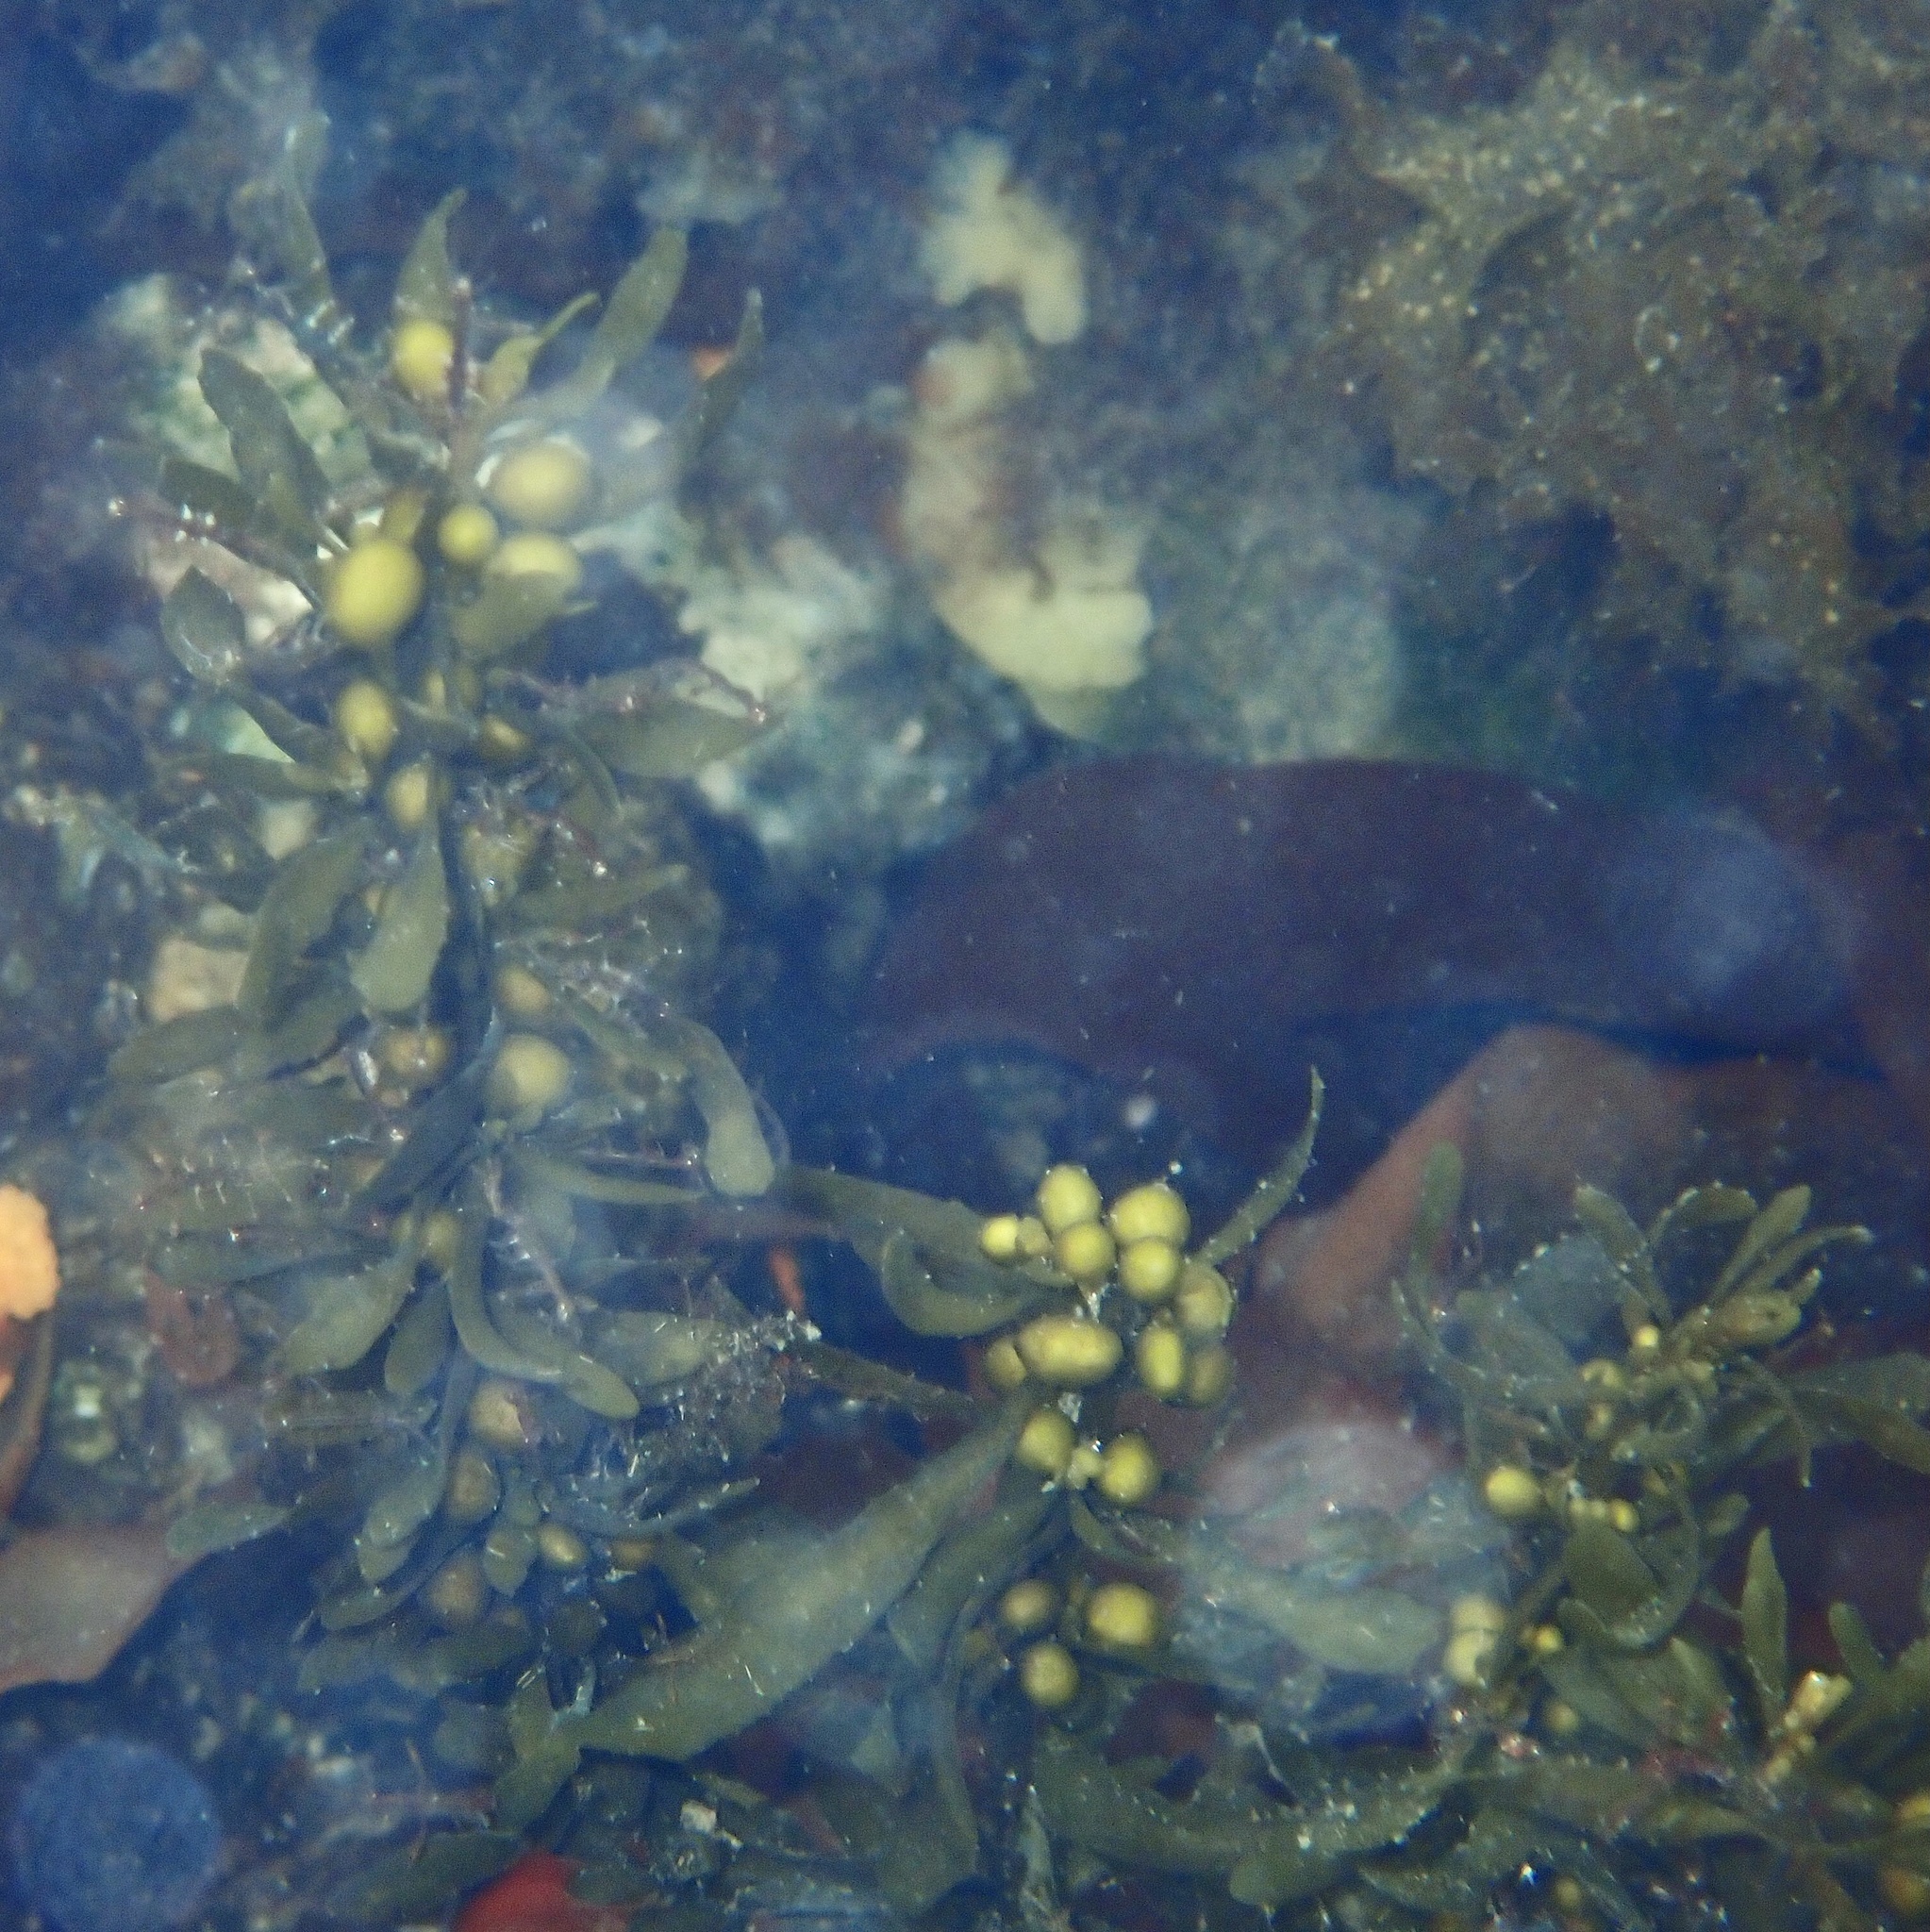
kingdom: Chromista
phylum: Ochrophyta
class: Phaeophyceae
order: Fucales
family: Sargassaceae
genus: Sargassum
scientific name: Sargassum muticum
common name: Japweed
